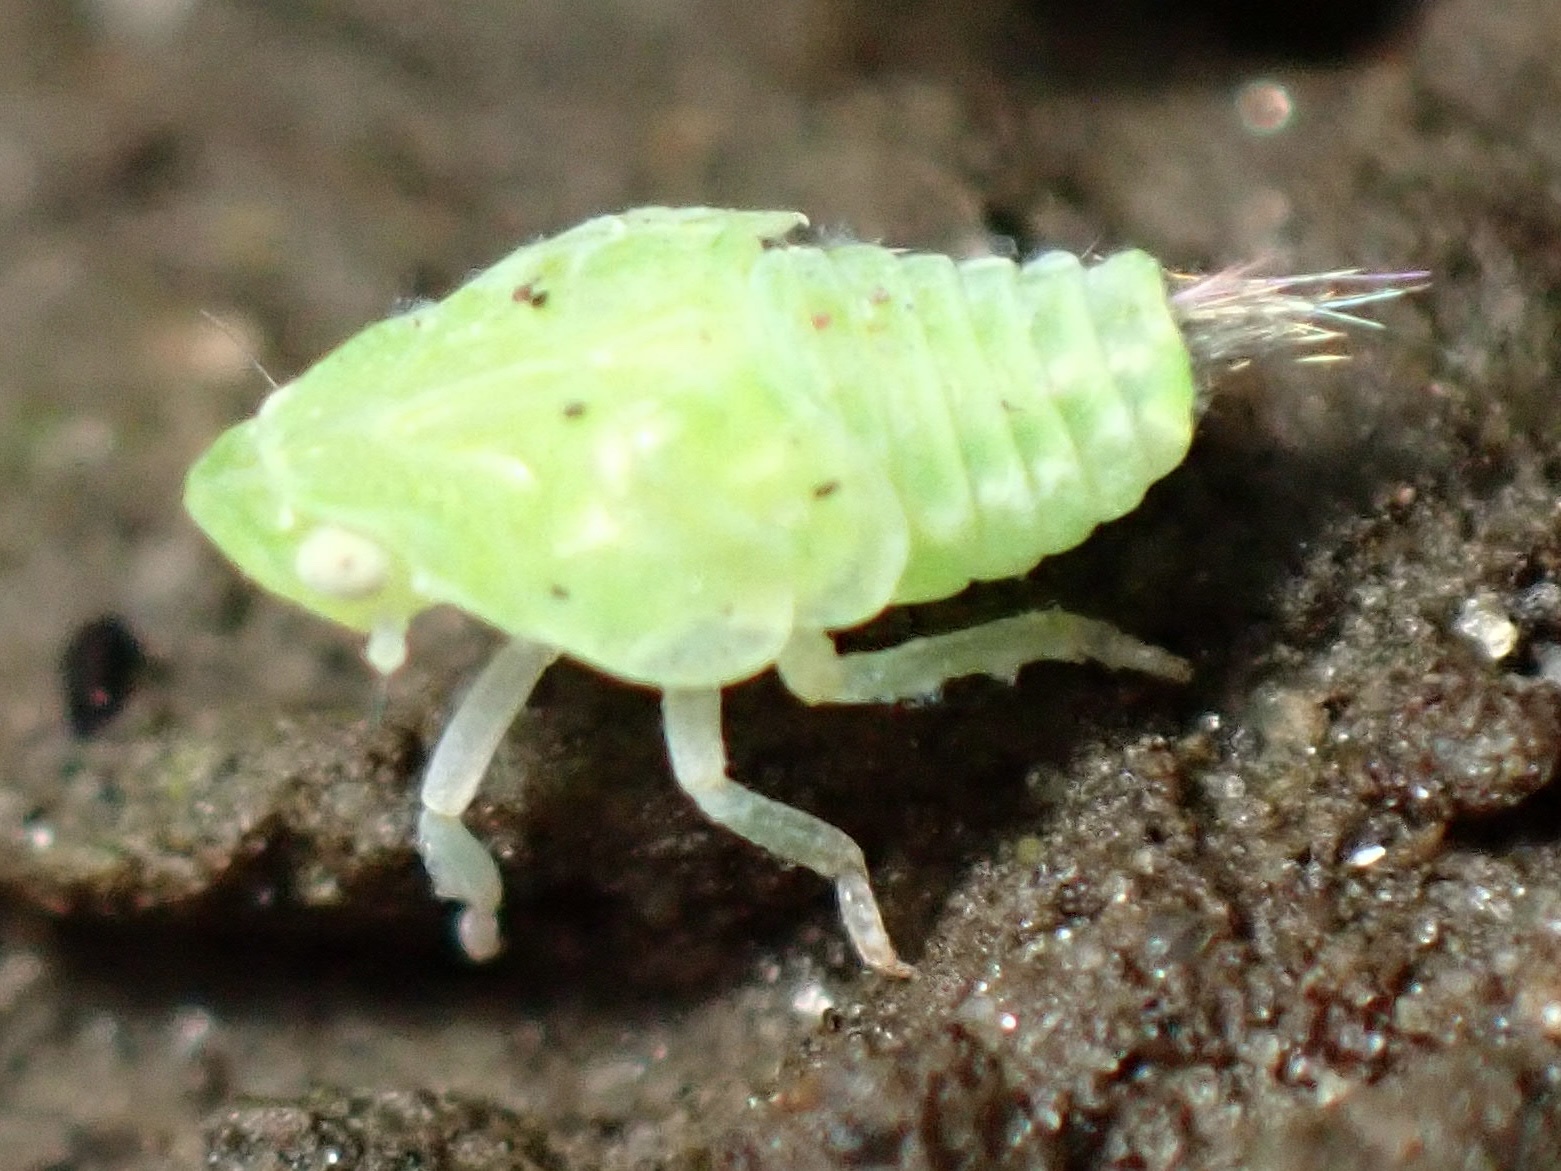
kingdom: Animalia
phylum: Arthropoda
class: Insecta
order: Hemiptera
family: Flatidae
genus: Siphanta
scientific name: Siphanta acuta
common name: Torpedo bug
